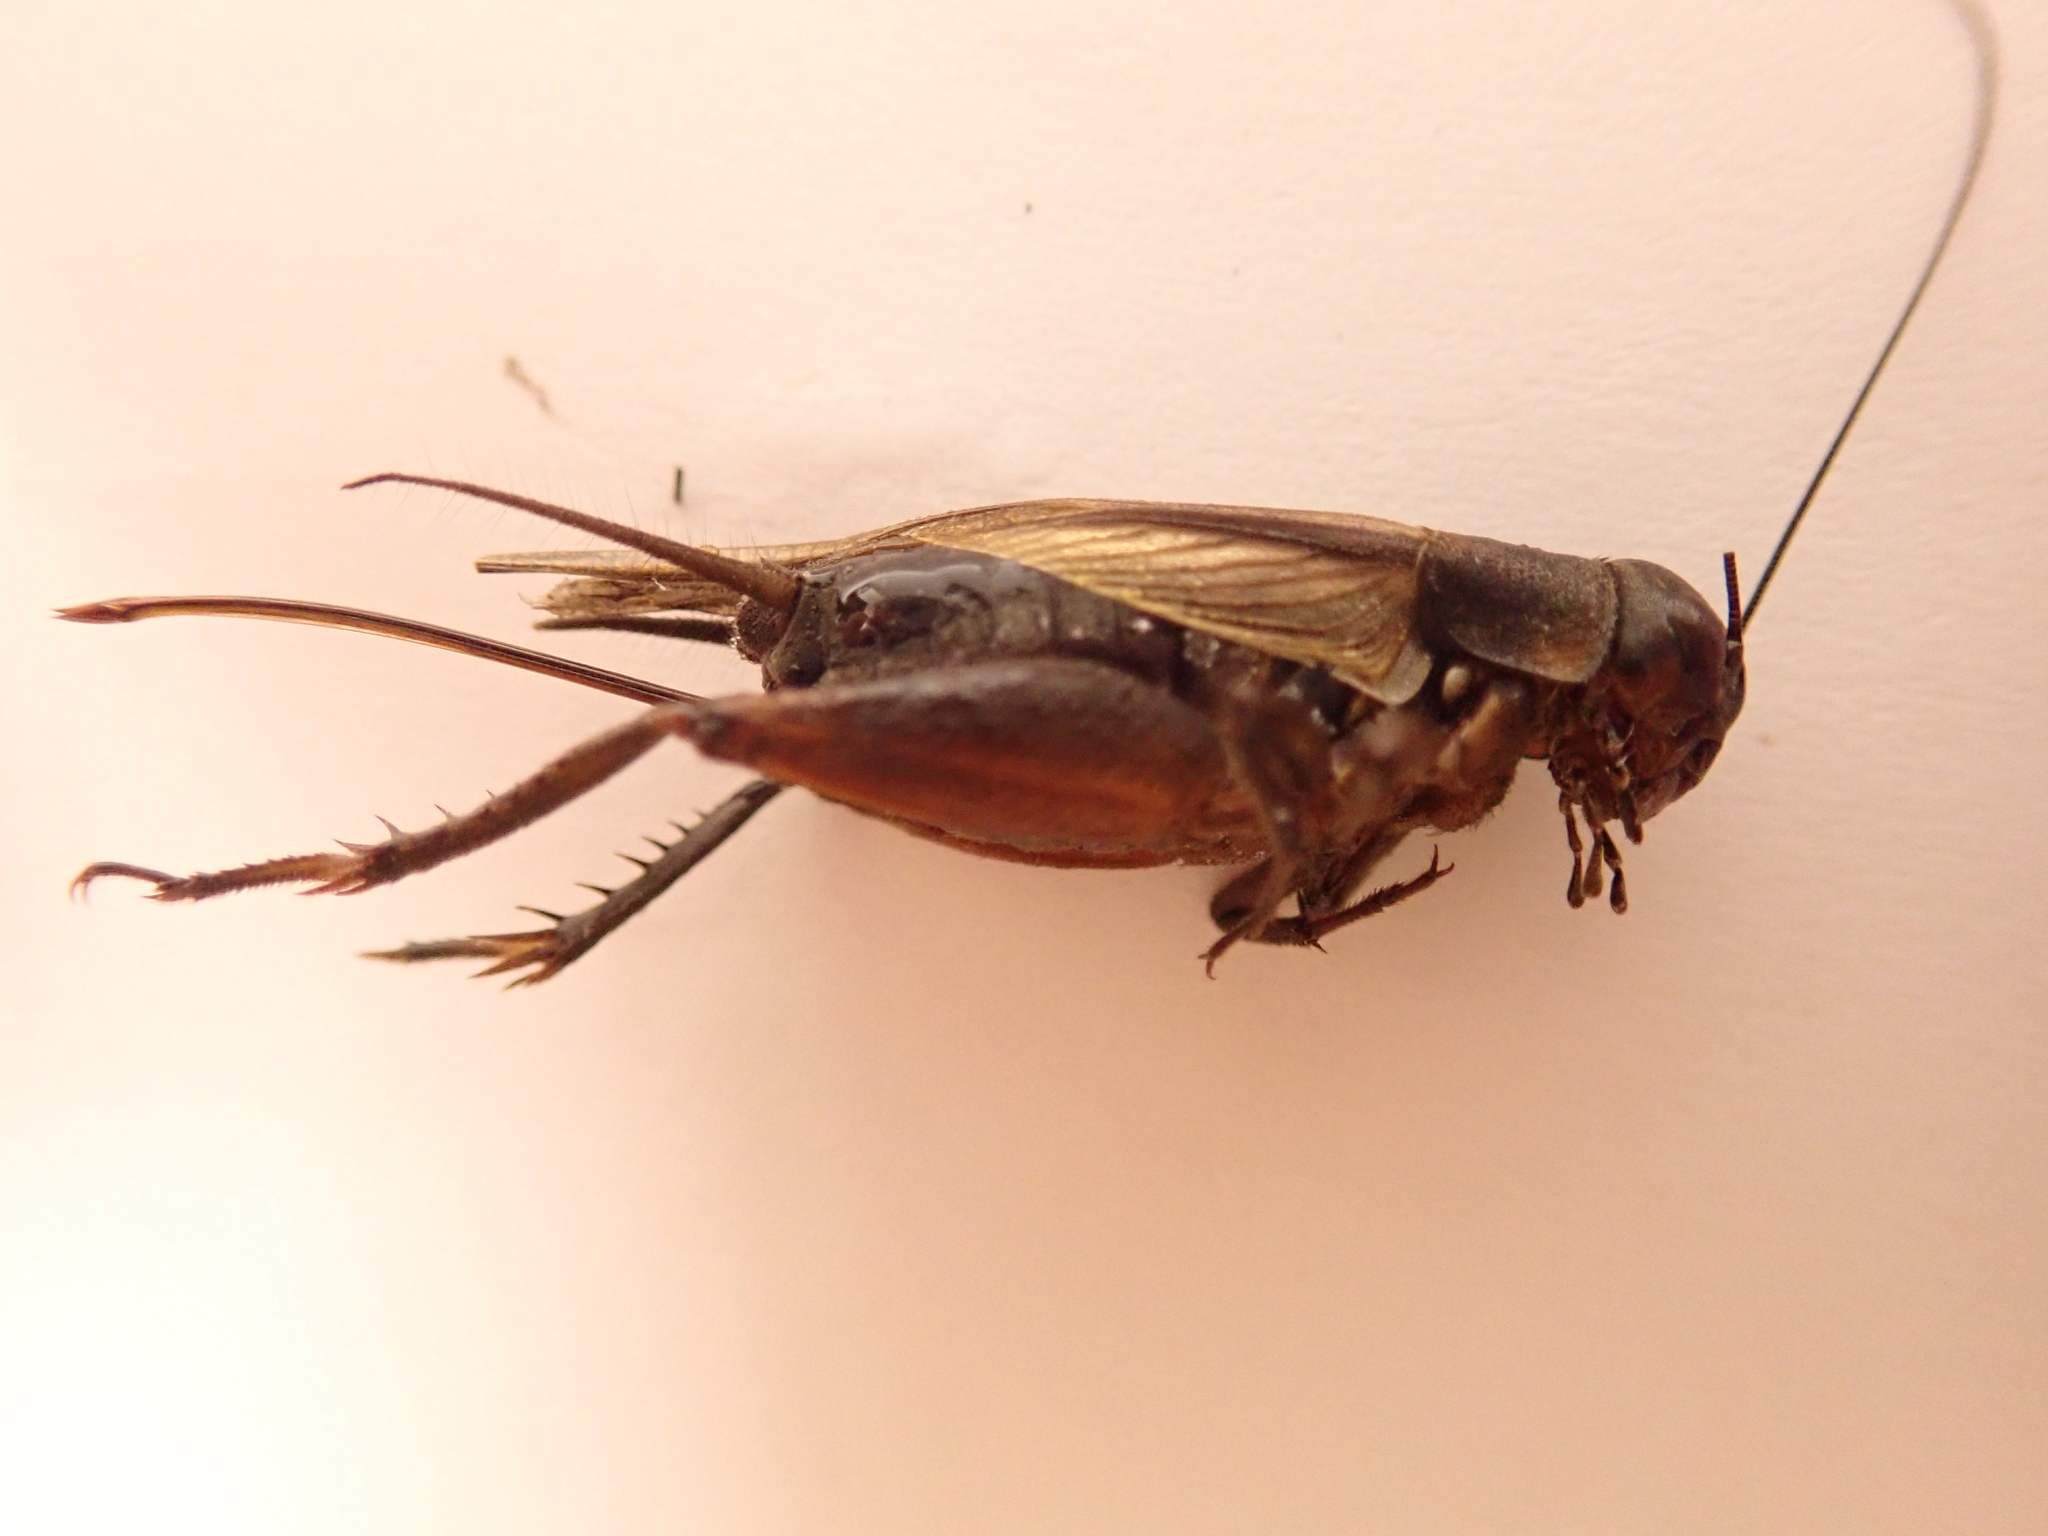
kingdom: Animalia
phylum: Arthropoda
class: Insecta
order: Orthoptera
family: Gryllidae
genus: Teleogryllus
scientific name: Teleogryllus commodus
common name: Black field cricket
